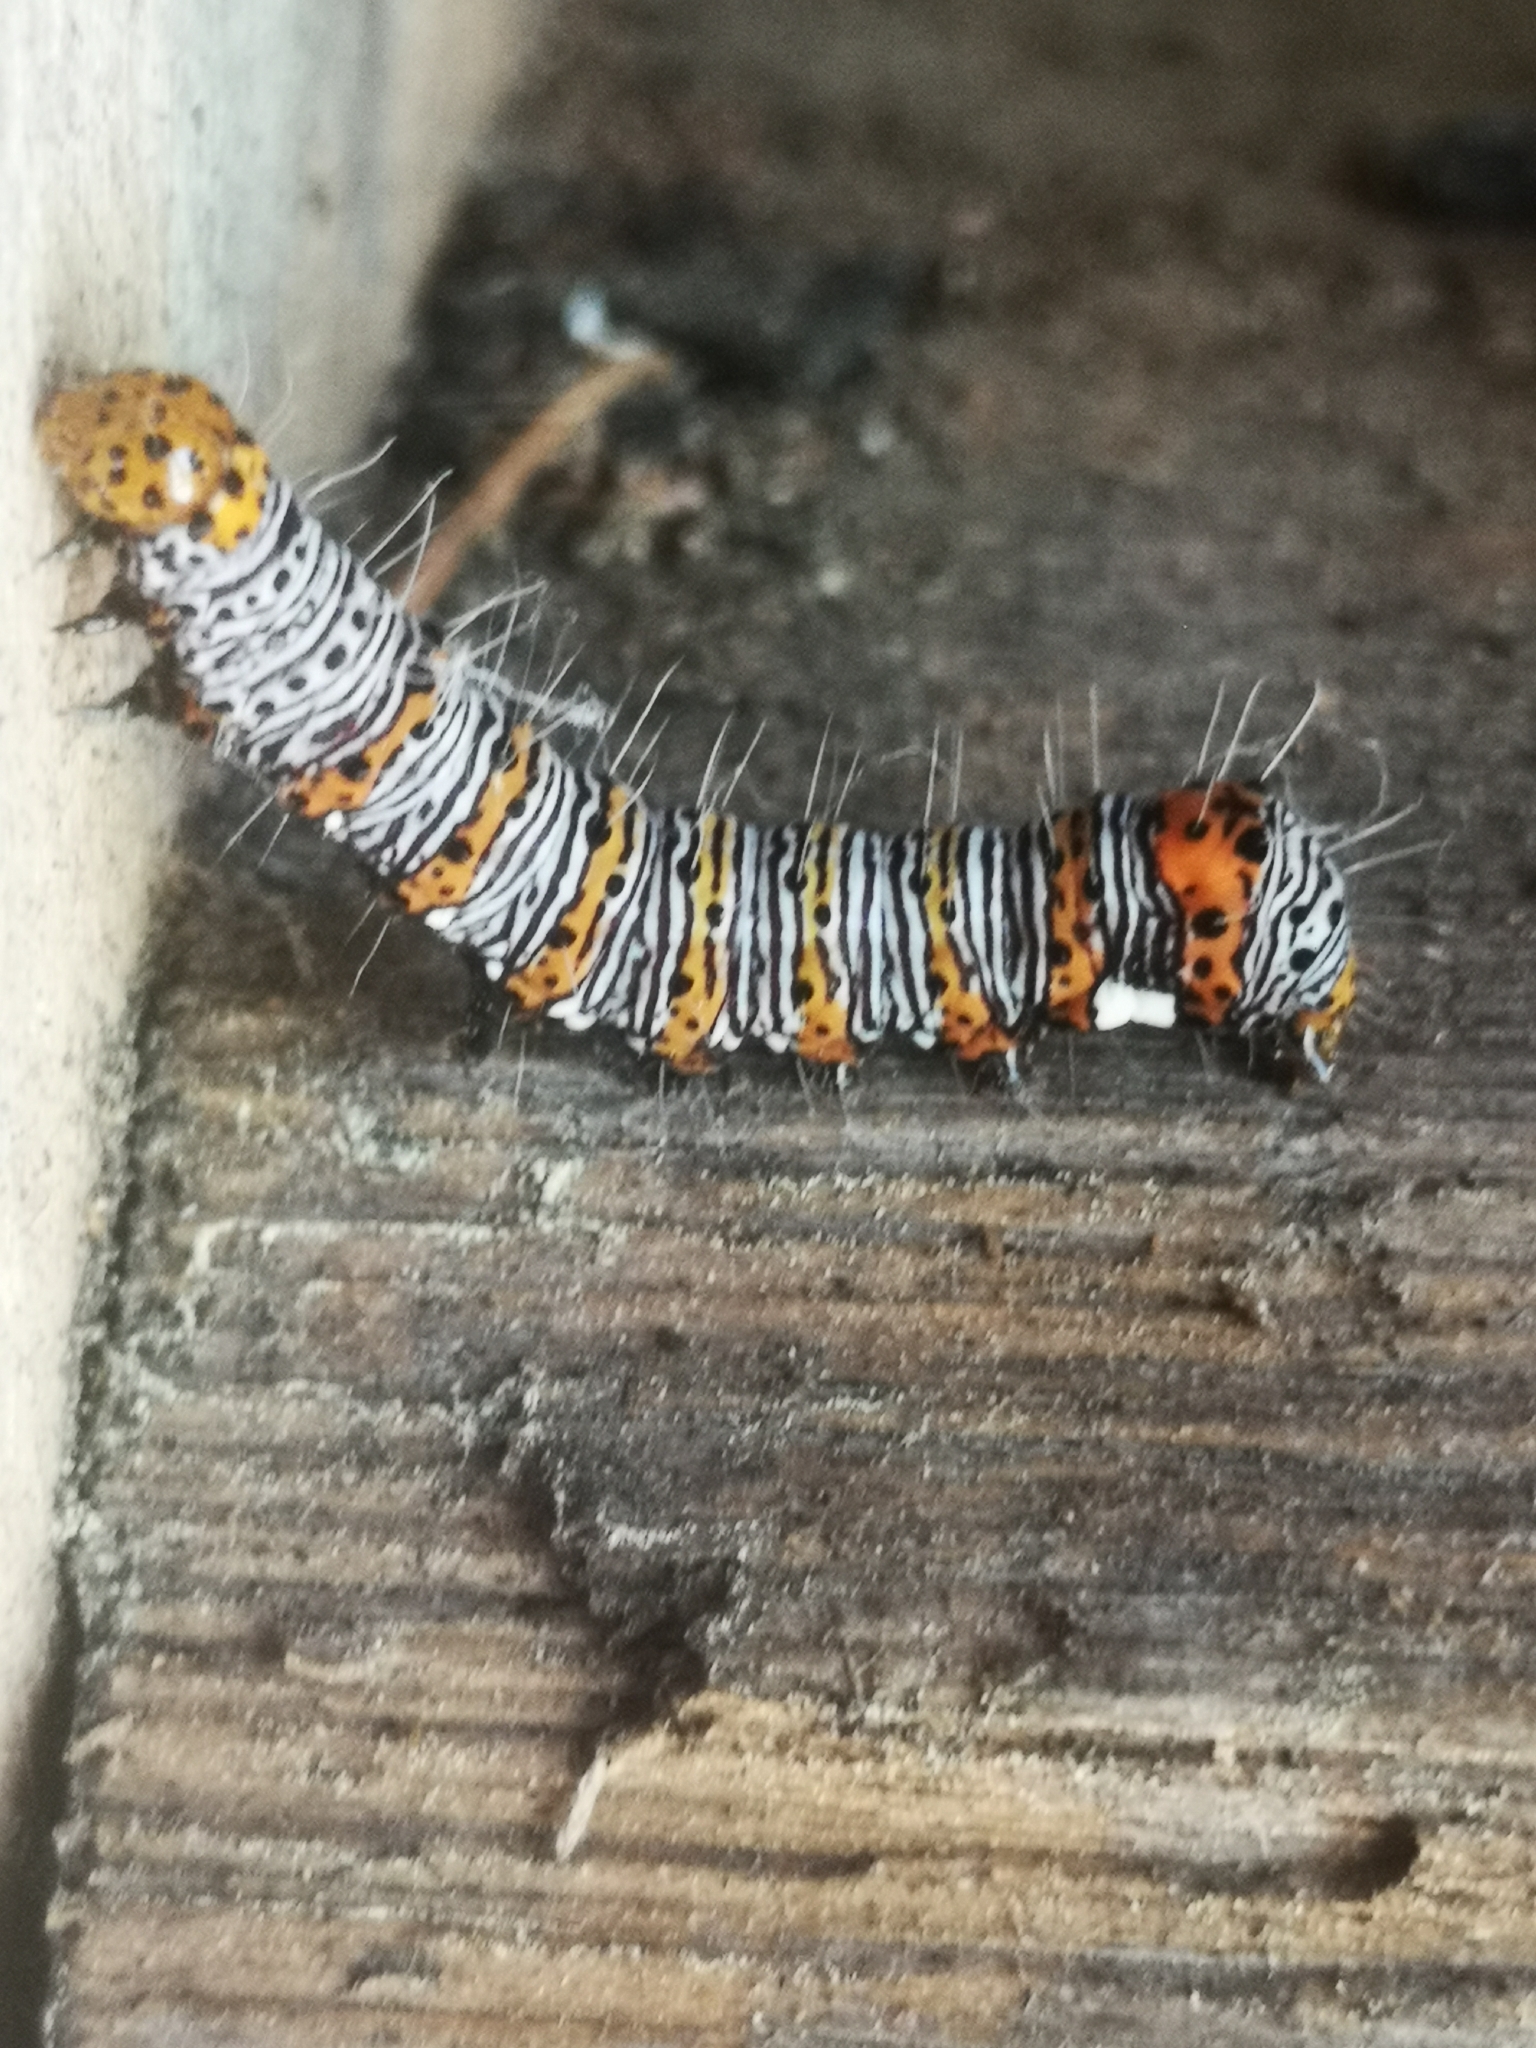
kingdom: Animalia
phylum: Arthropoda
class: Insecta
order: Lepidoptera
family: Noctuidae
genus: Alypia
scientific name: Alypia octomaculata
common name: Eight-spotted forester
